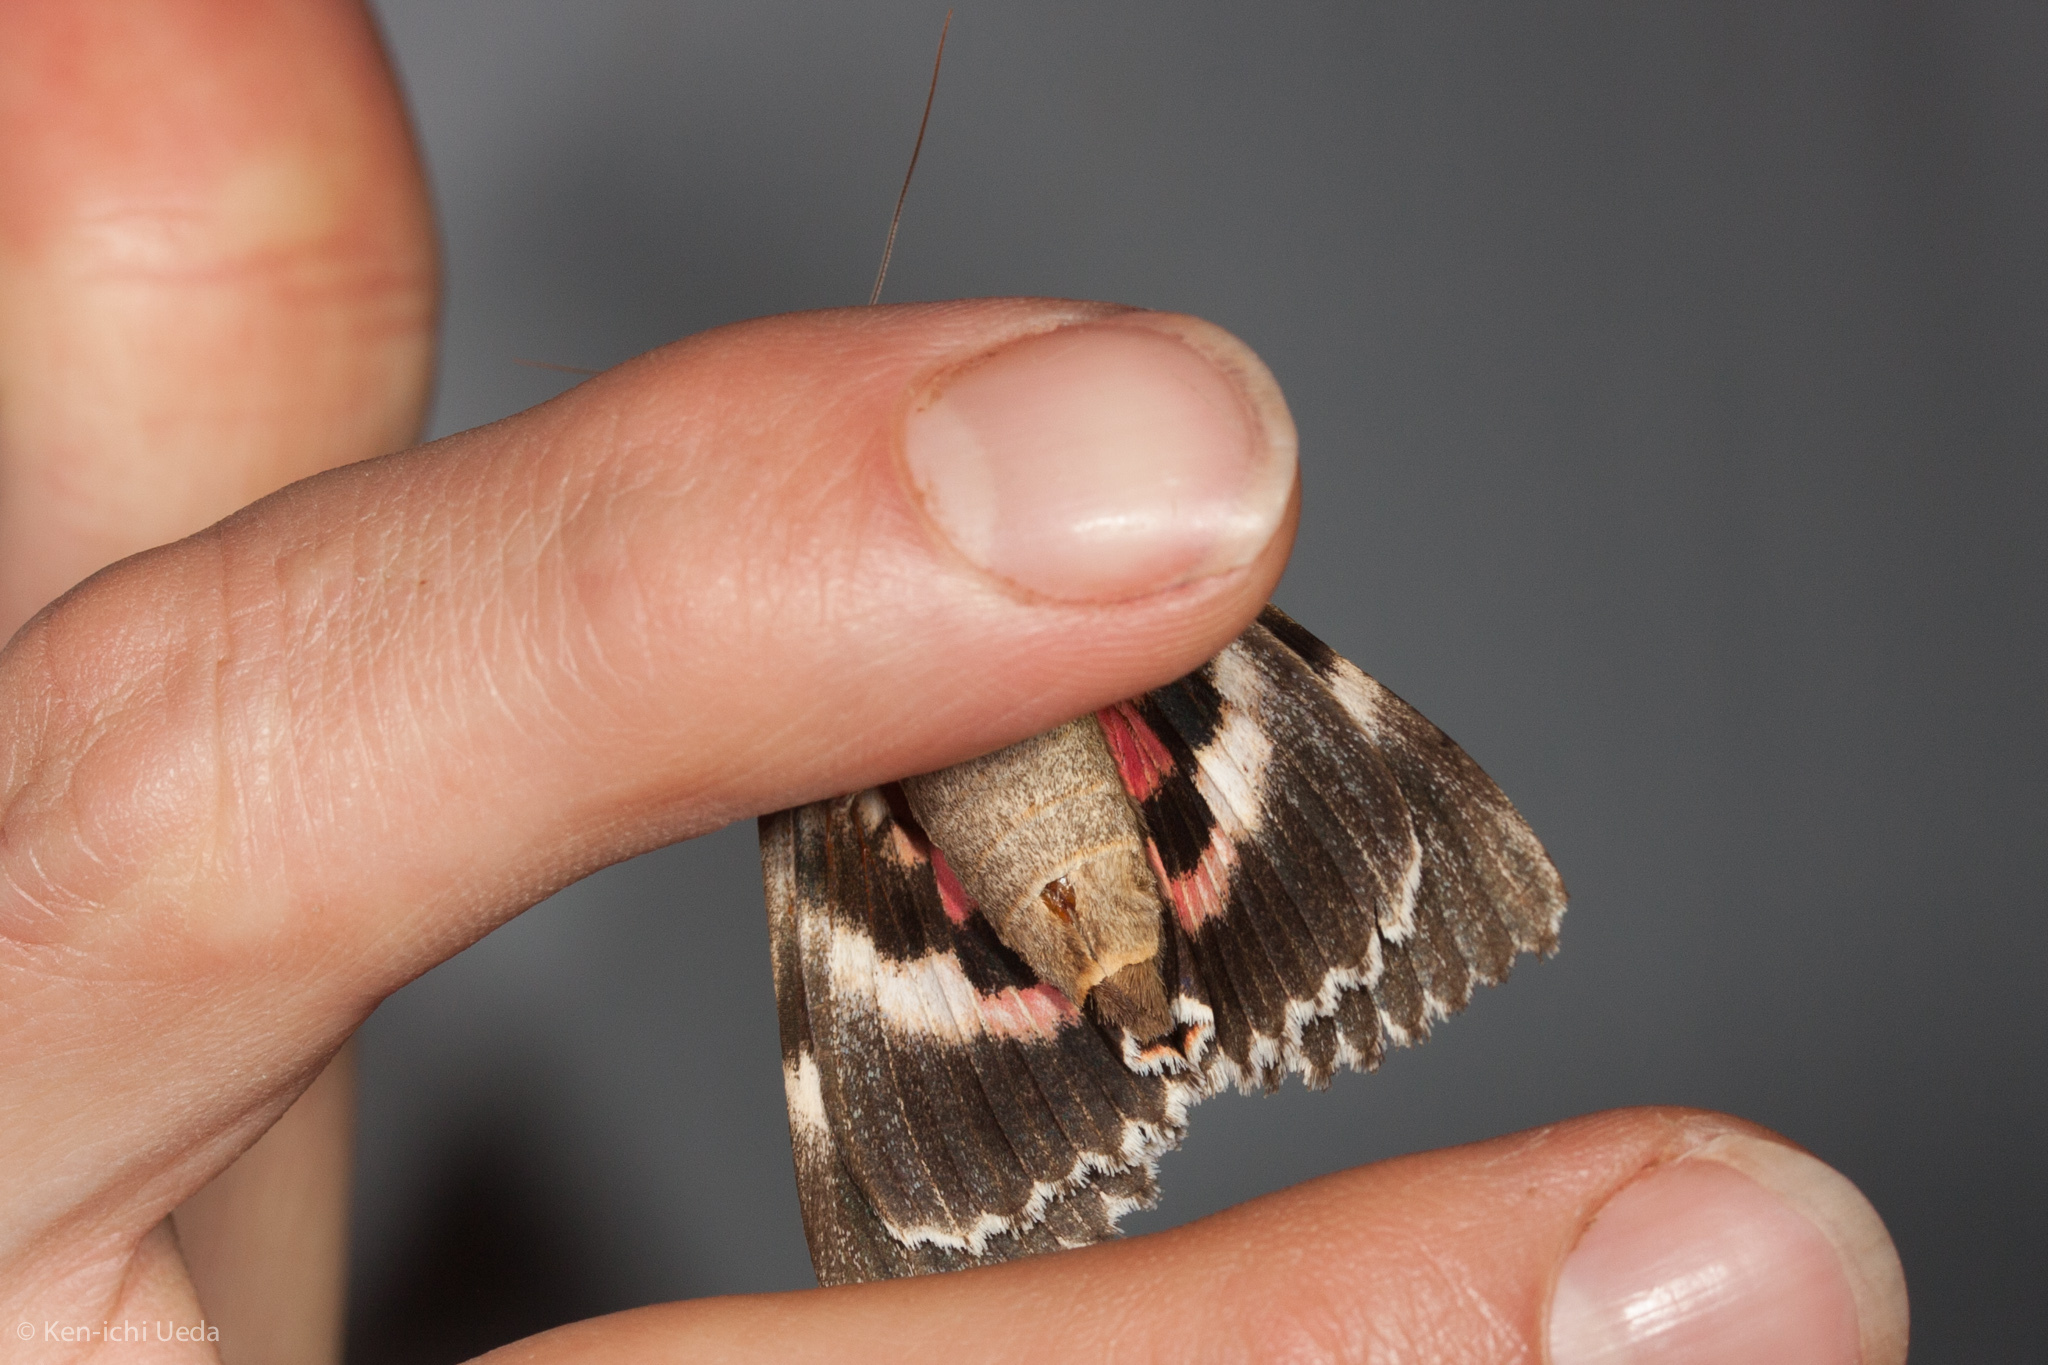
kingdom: Animalia
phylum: Arthropoda
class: Insecta
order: Lepidoptera
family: Erebidae
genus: Catocala
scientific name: Catocala aholibah
